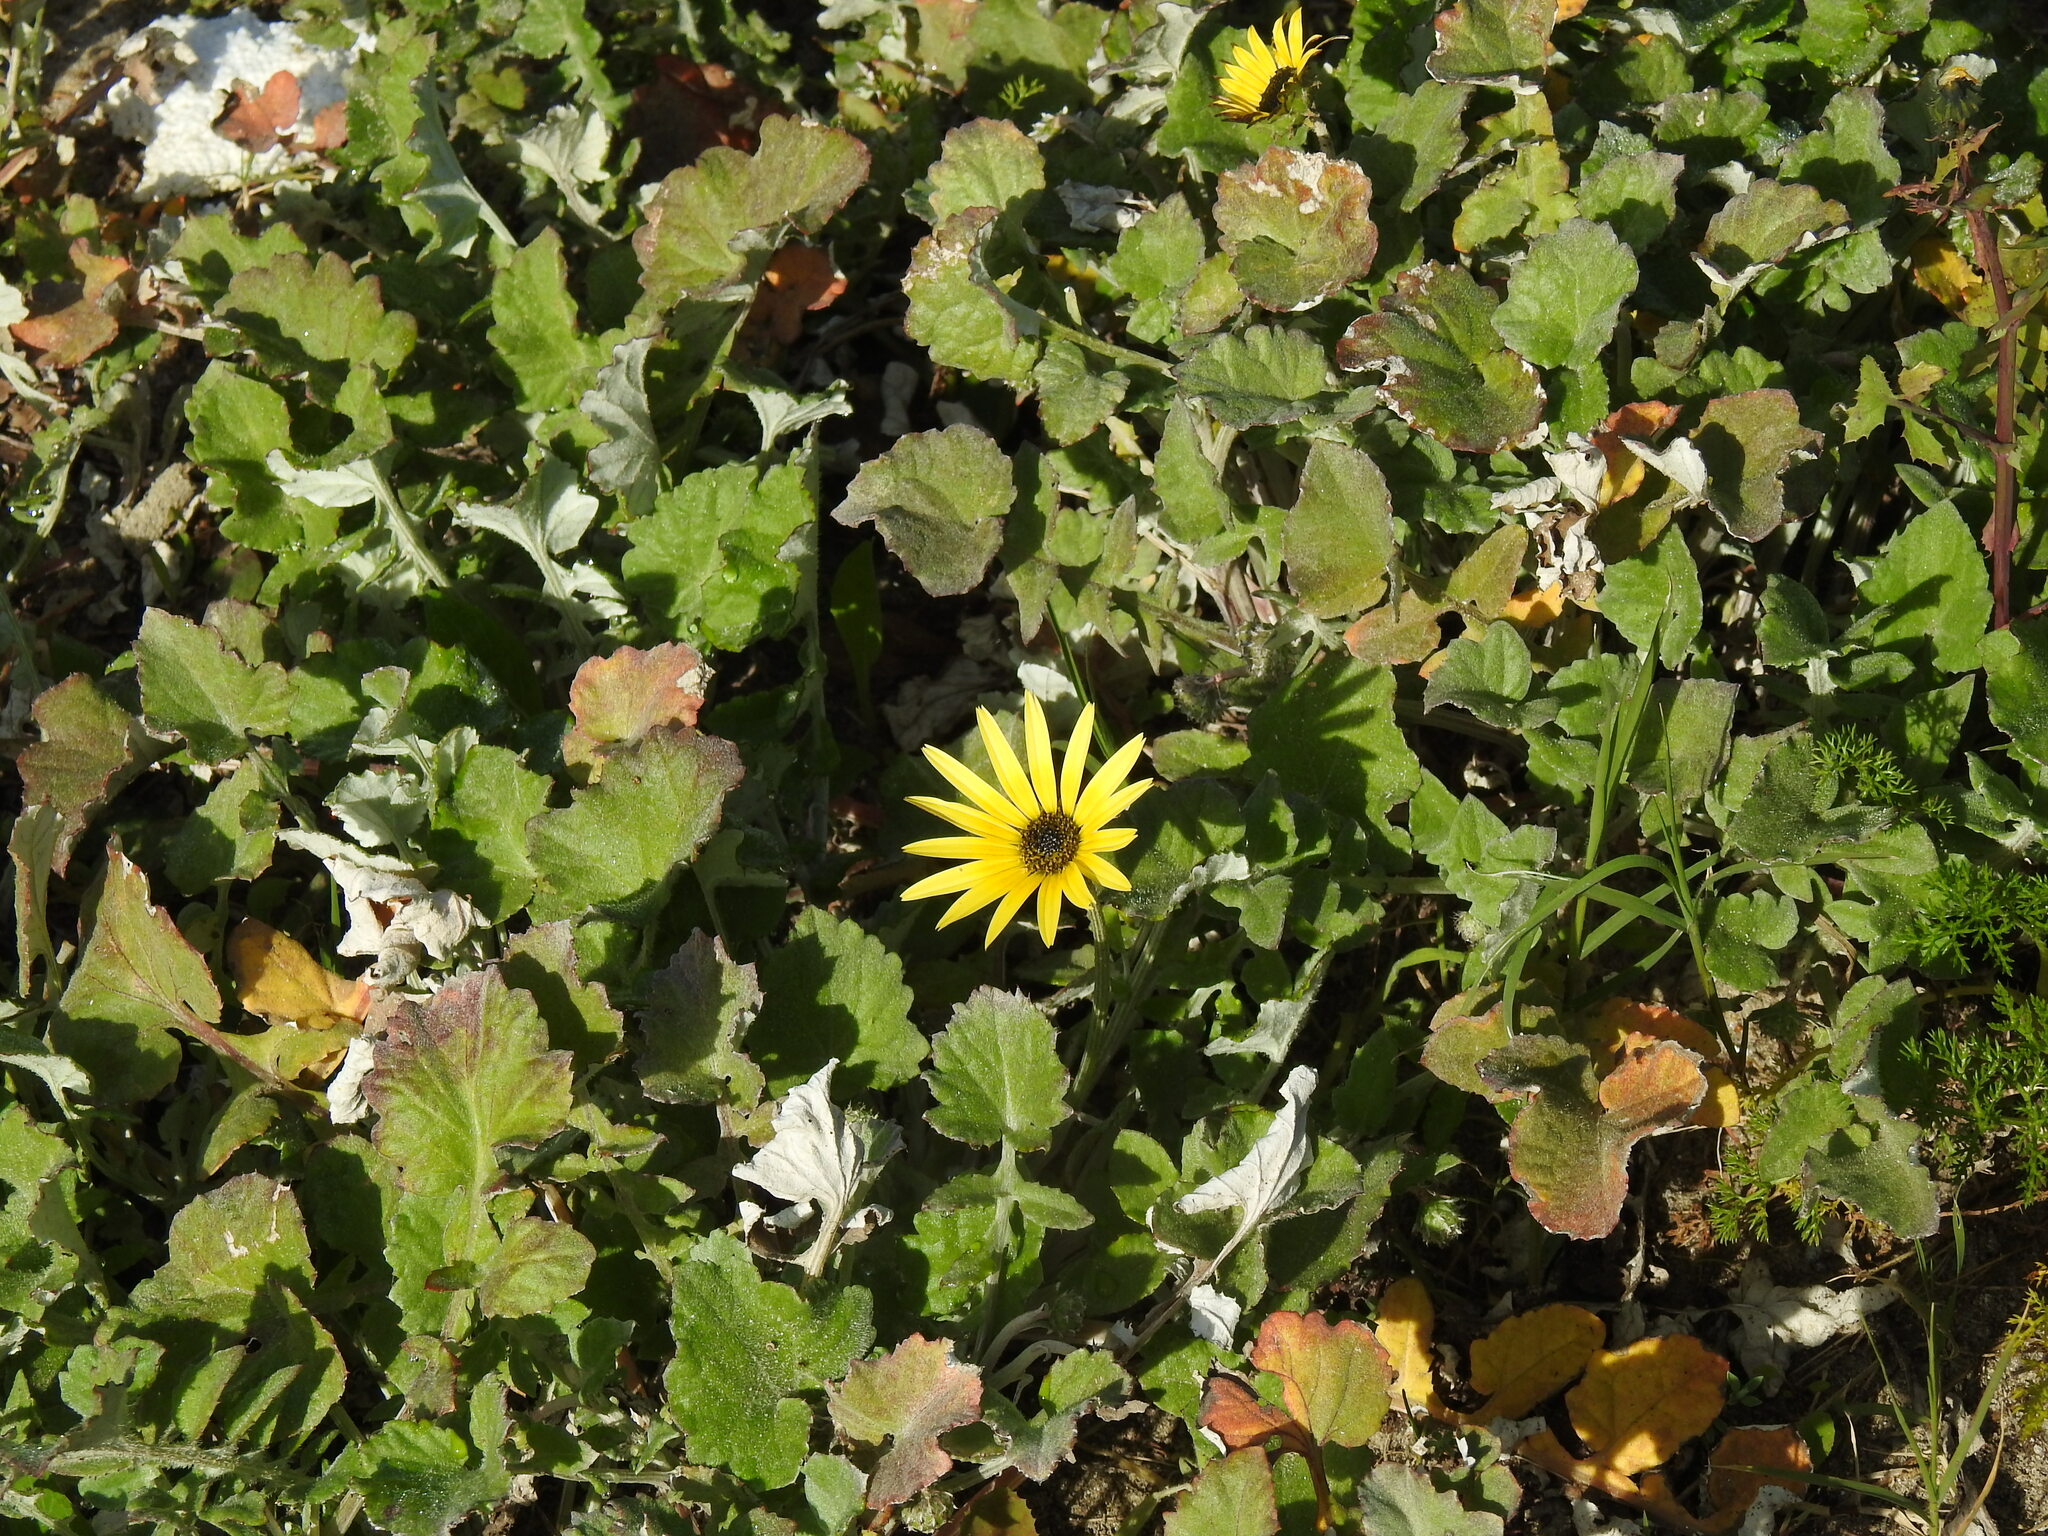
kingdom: Plantae
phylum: Tracheophyta
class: Magnoliopsida
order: Asterales
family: Asteraceae
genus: Arctotheca
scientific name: Arctotheca calendula
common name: Capeweed
